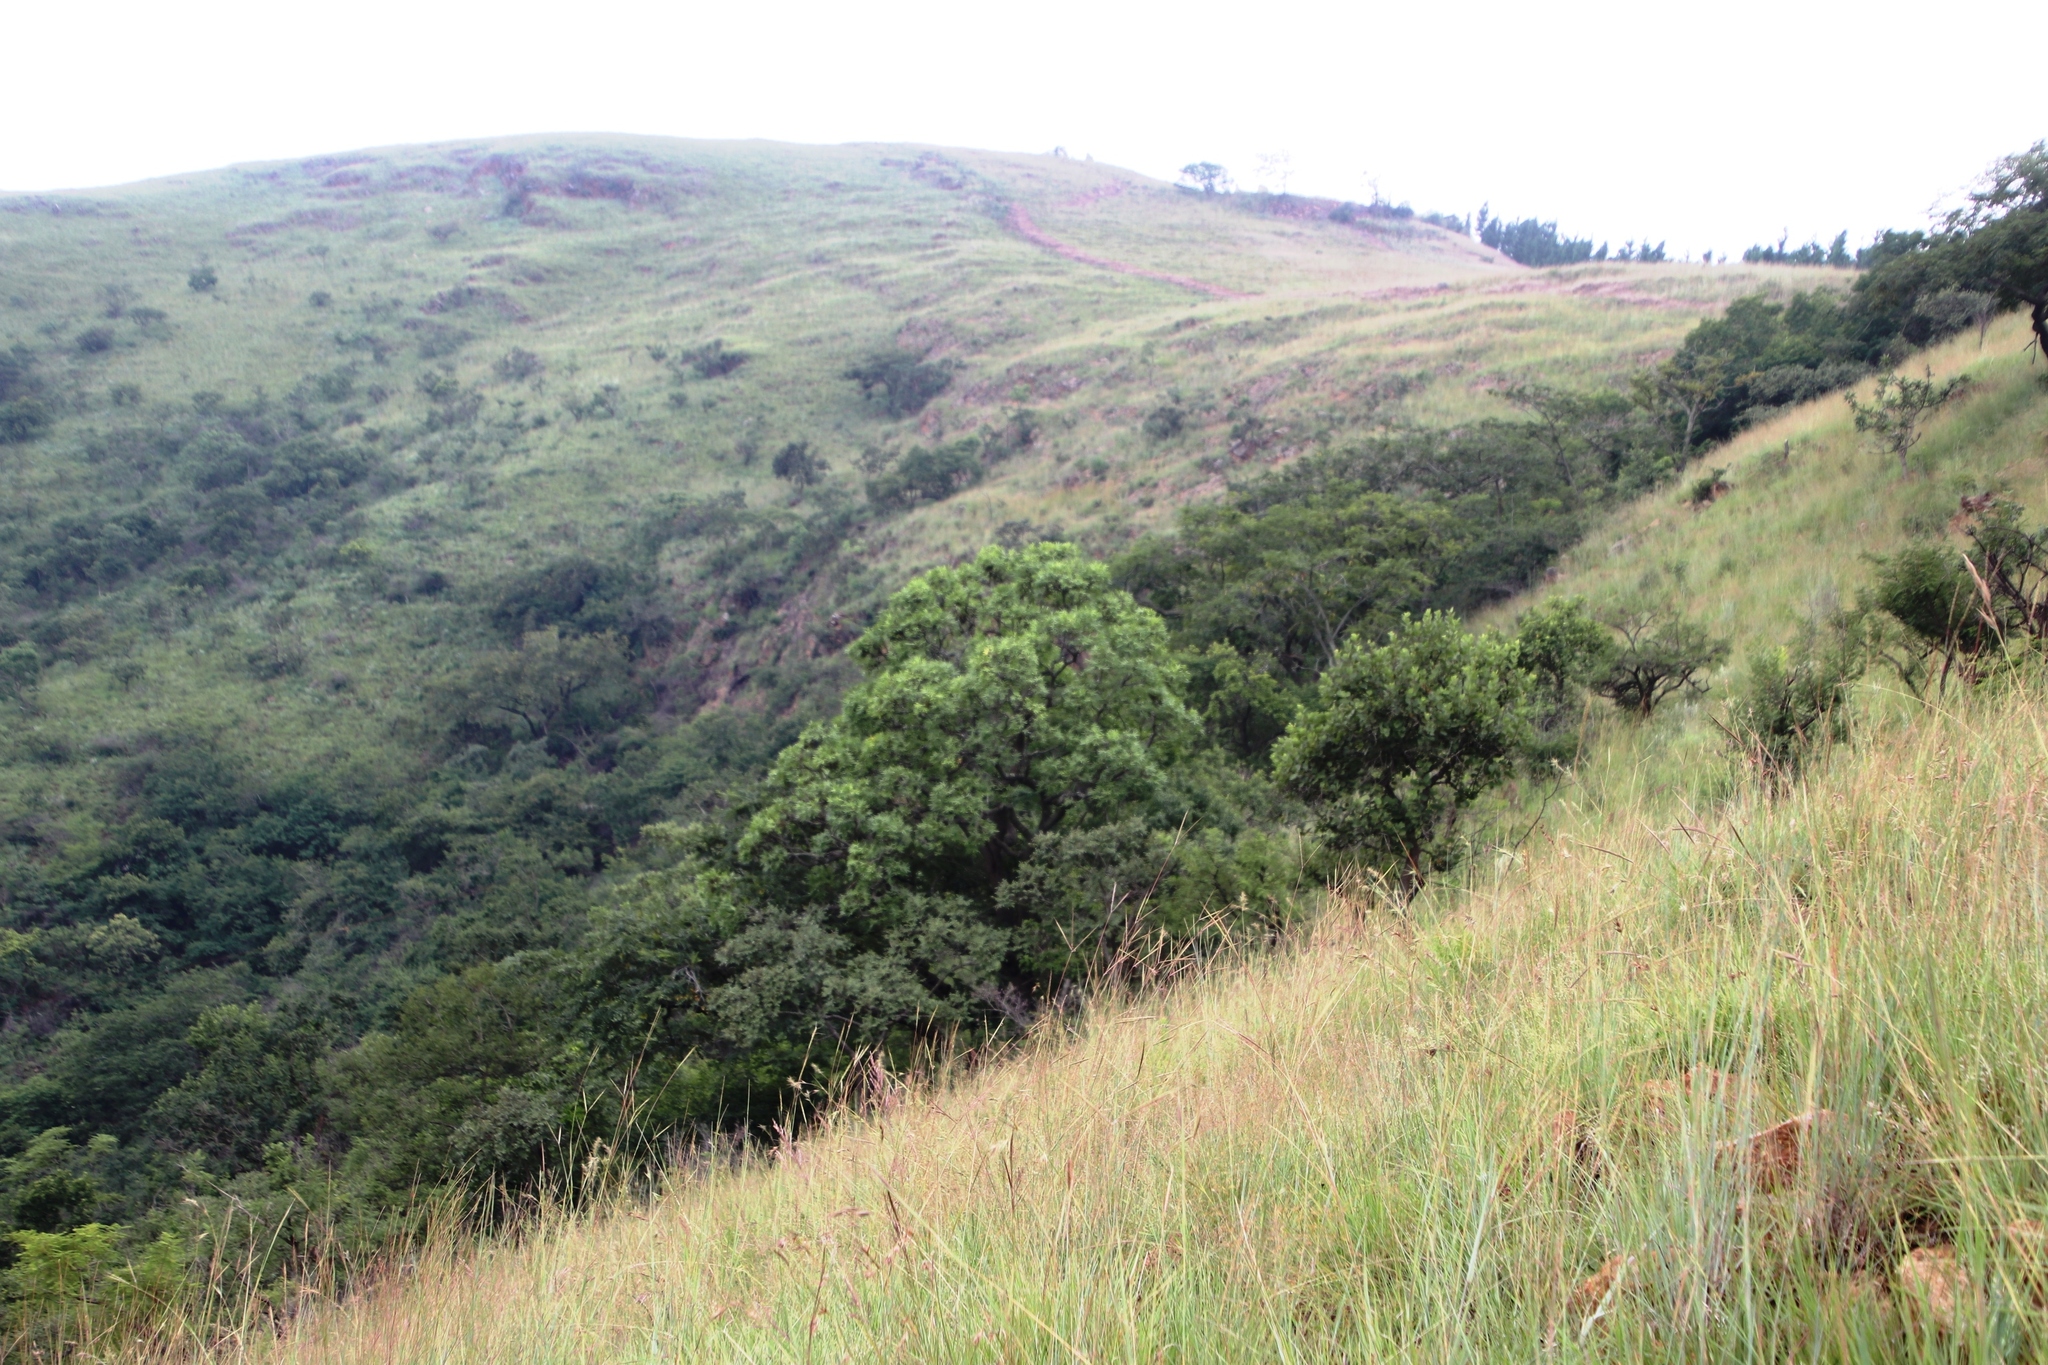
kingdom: Plantae
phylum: Tracheophyta
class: Magnoliopsida
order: Apiales
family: Araliaceae
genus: Cussonia
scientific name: Cussonia natalensis
